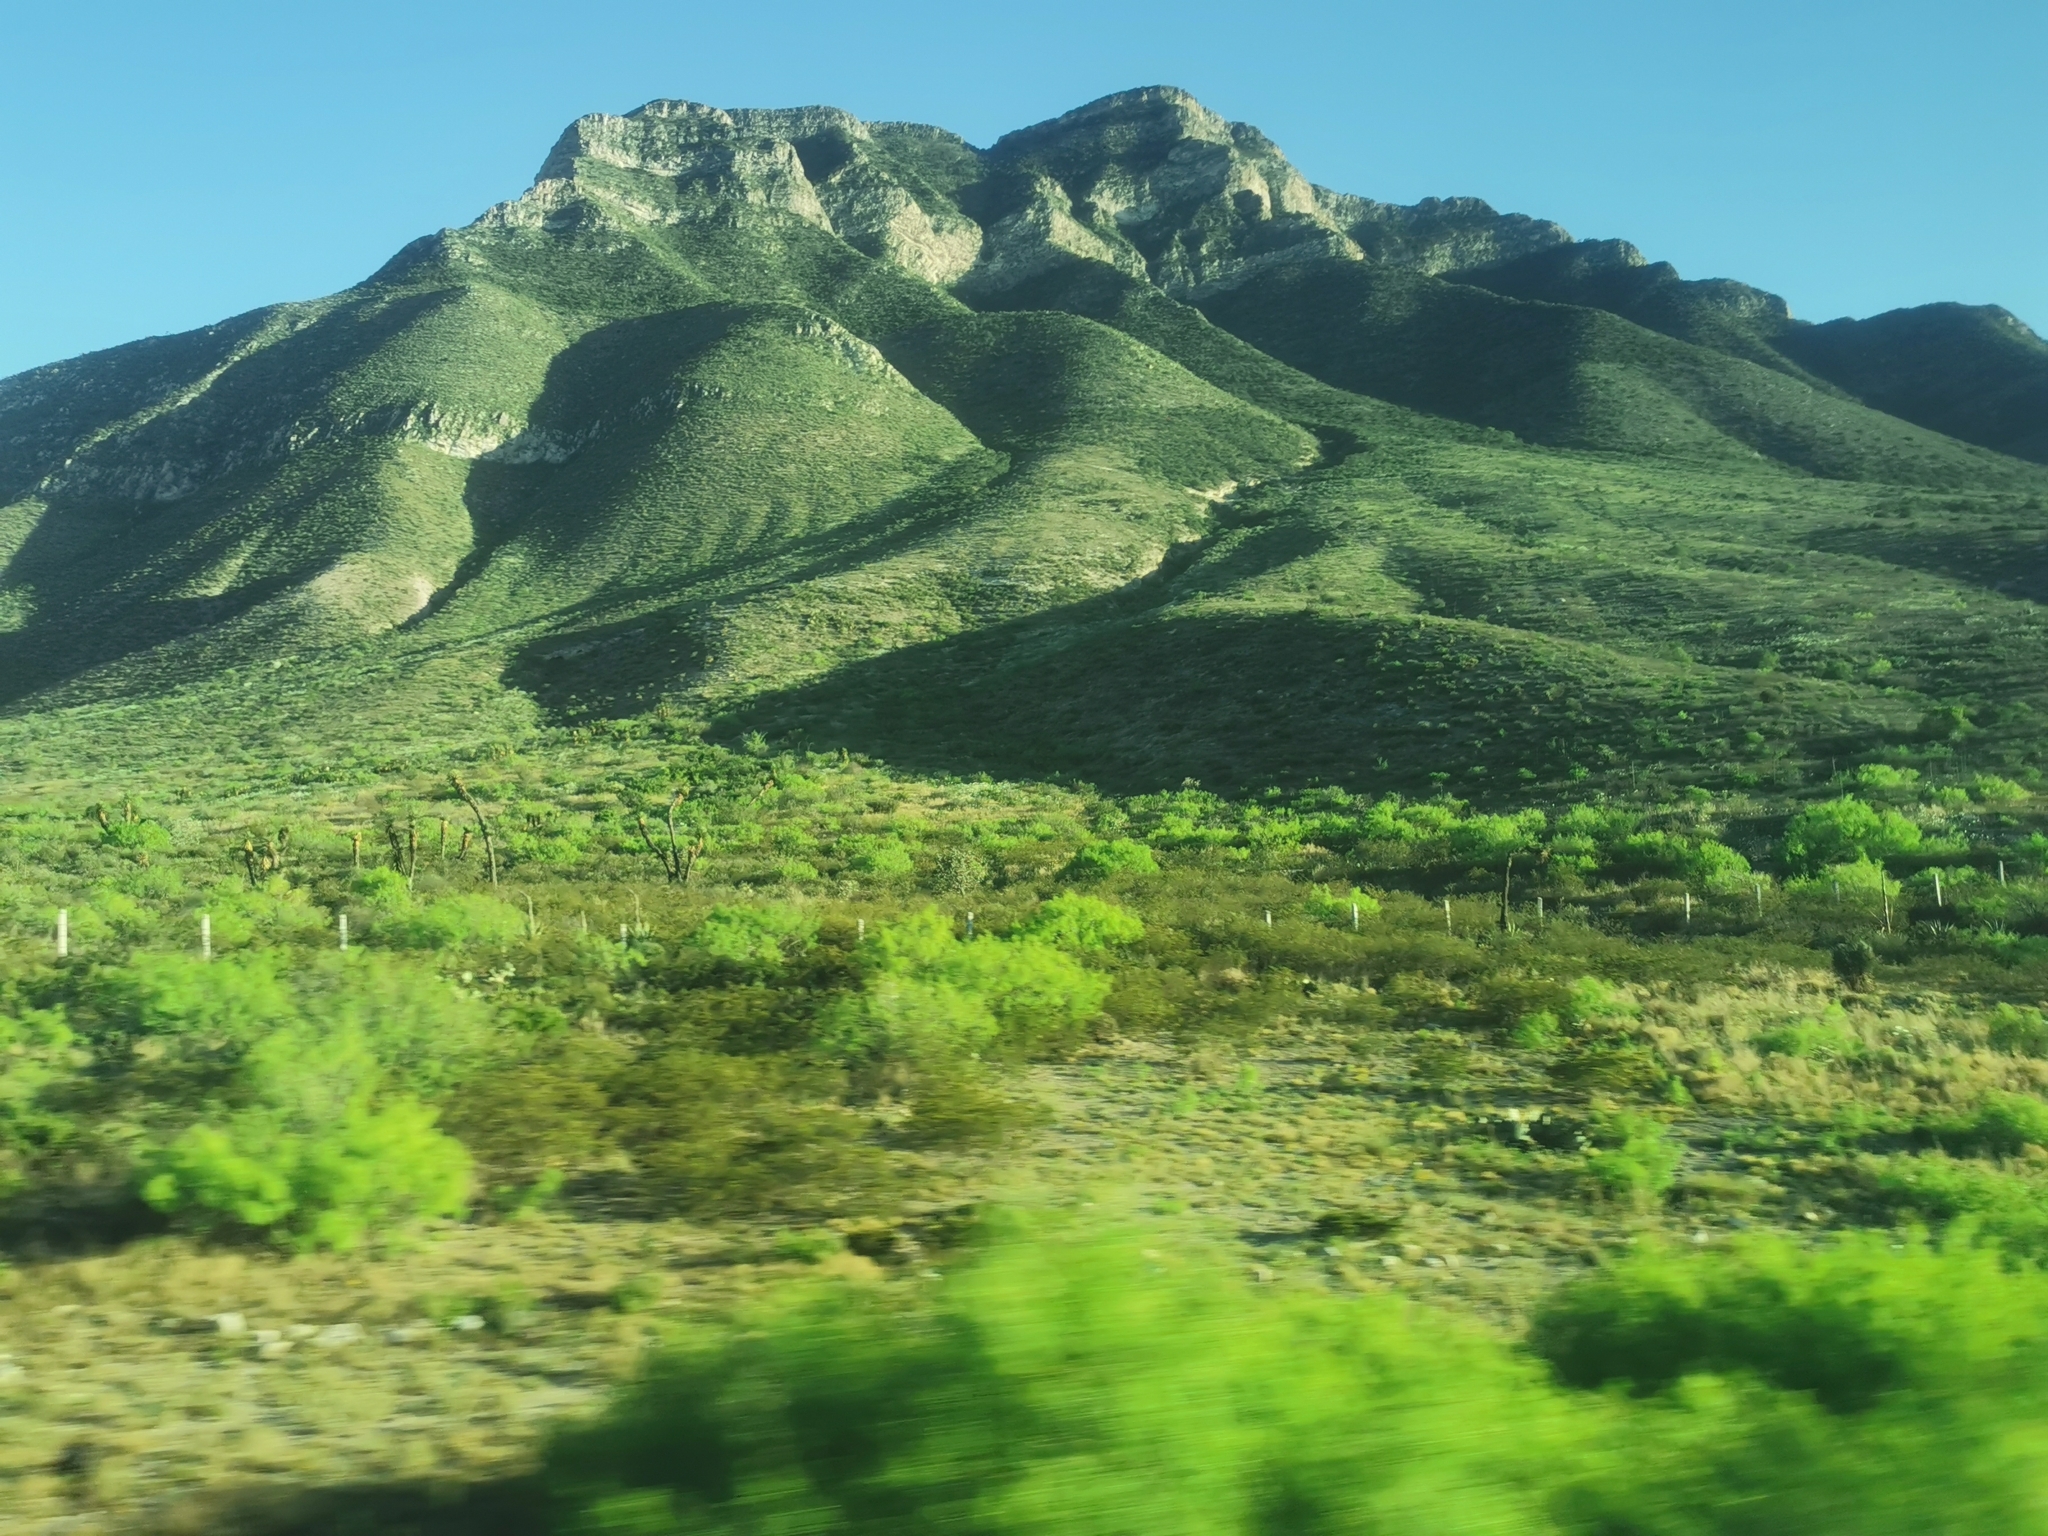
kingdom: Plantae
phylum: Tracheophyta
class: Magnoliopsida
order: Fabales
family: Fabaceae
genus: Prosopis
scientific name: Prosopis glandulosa
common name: Honey mesquite
